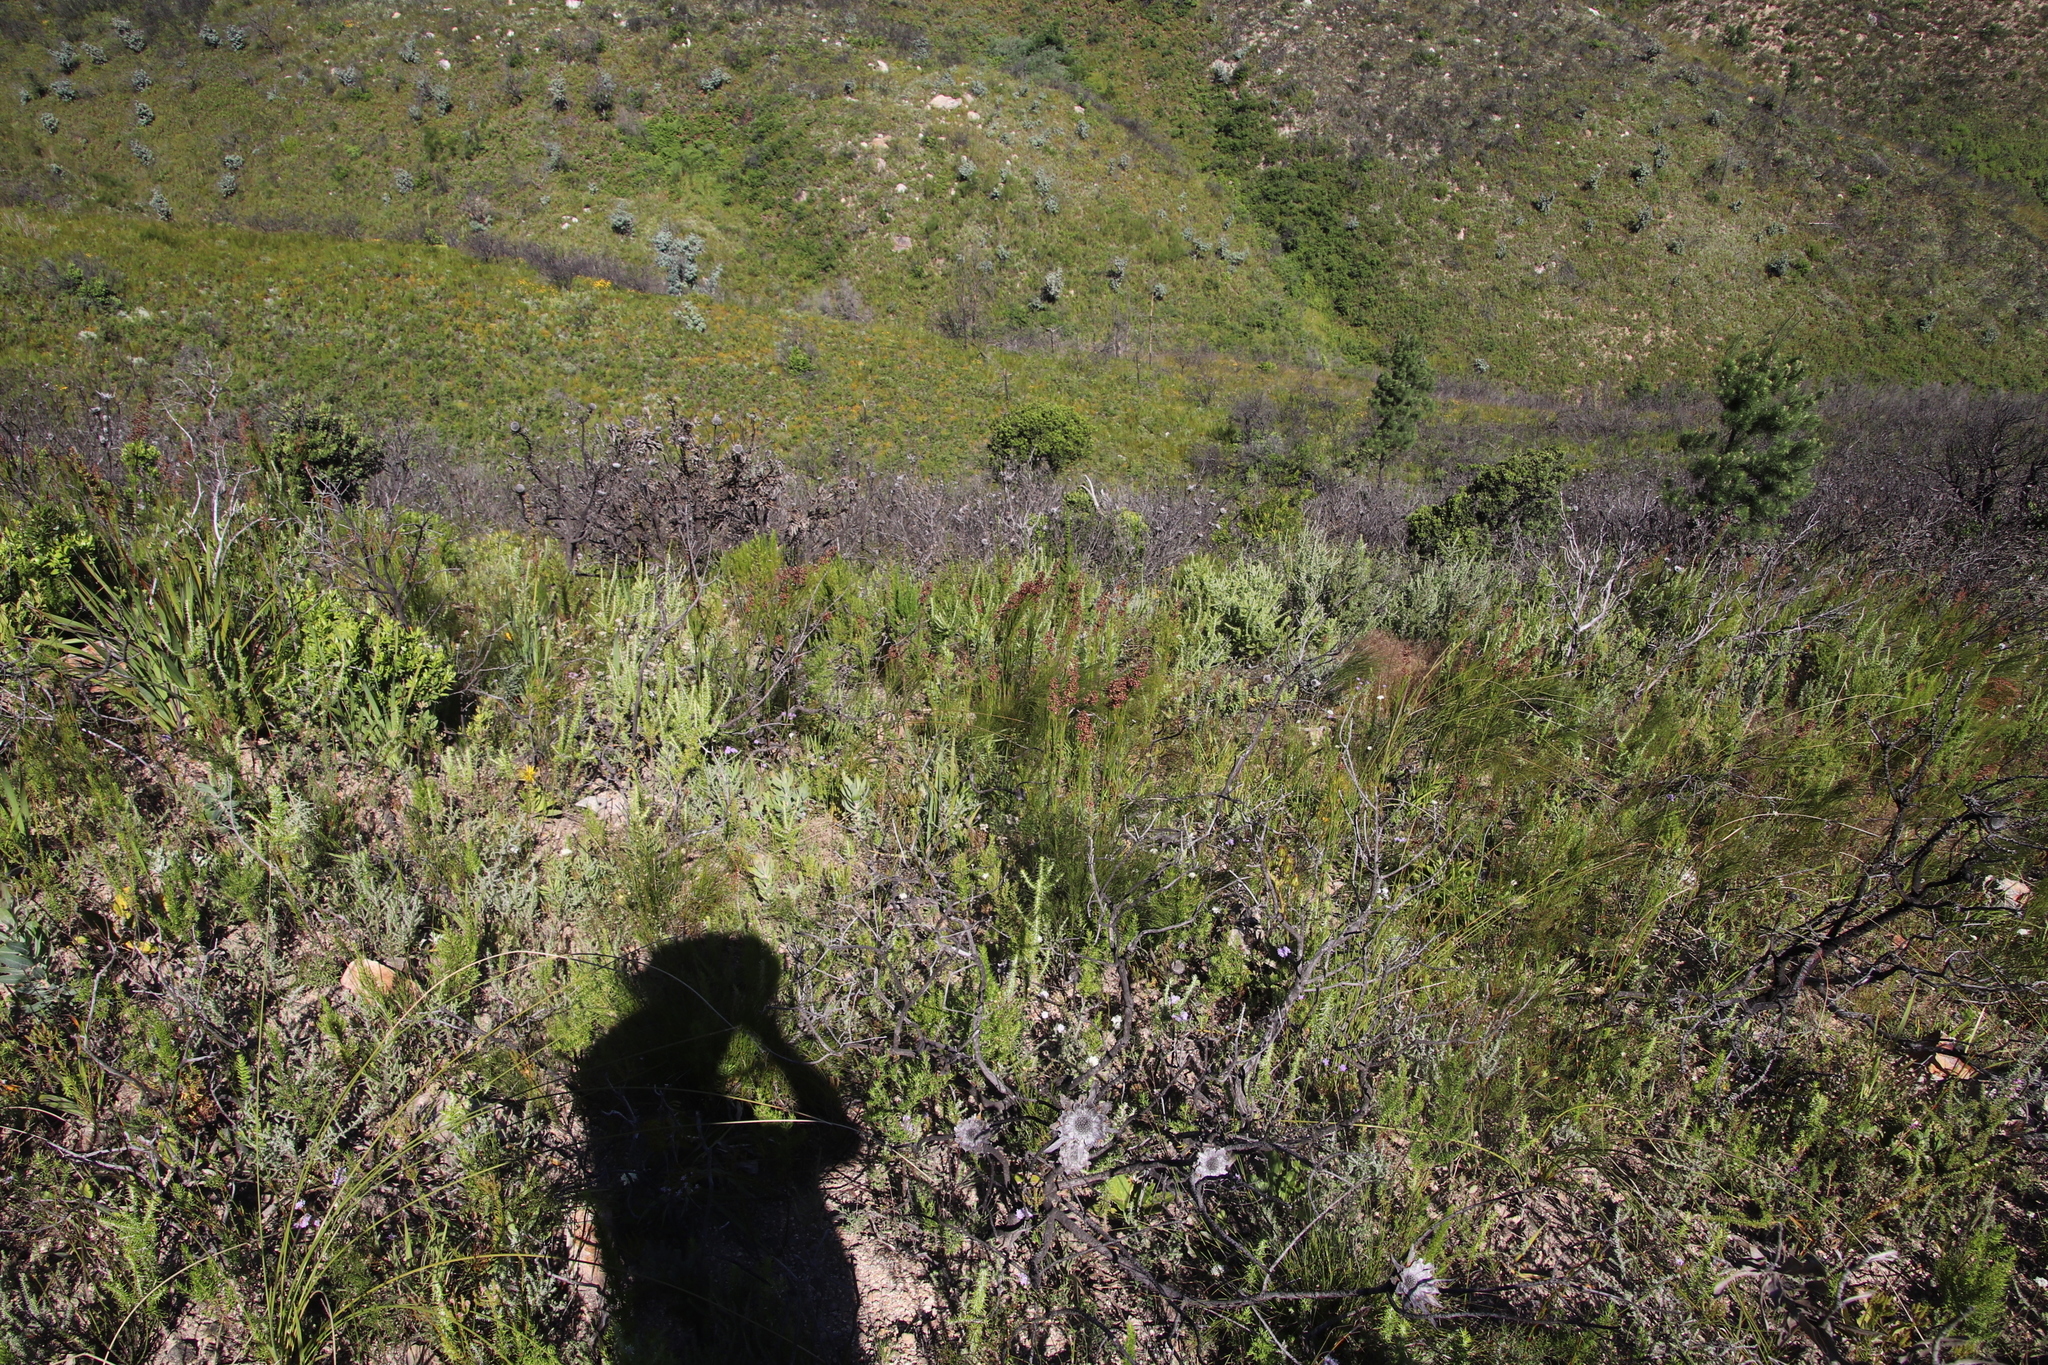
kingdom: Plantae
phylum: Tracheophyta
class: Liliopsida
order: Poales
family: Restionaceae
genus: Cannomois
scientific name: Cannomois virgata
